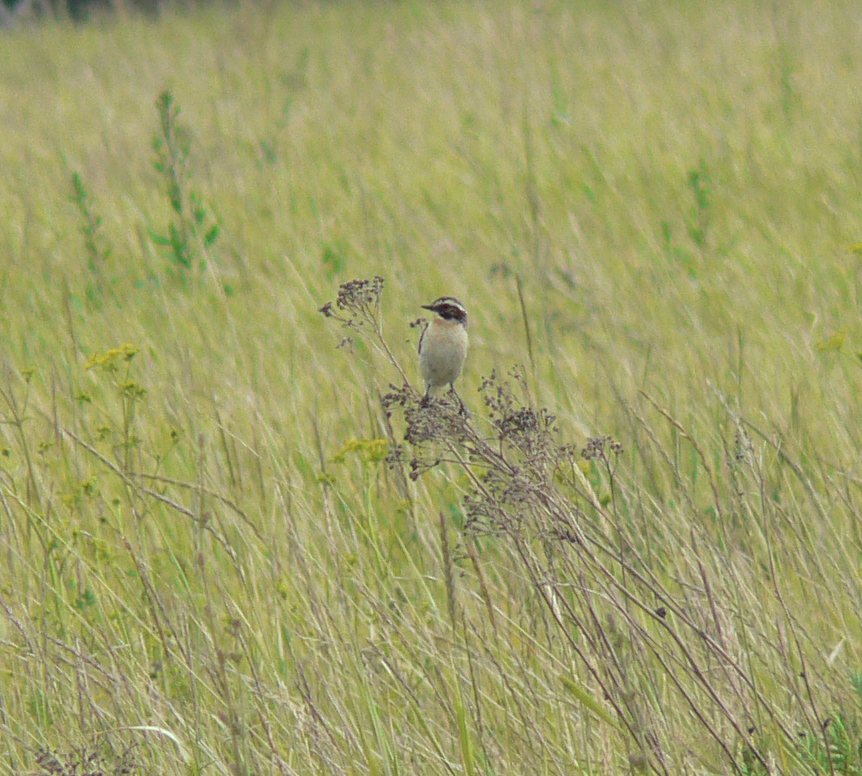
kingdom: Animalia
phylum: Chordata
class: Aves
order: Passeriformes
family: Muscicapidae
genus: Saxicola
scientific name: Saxicola rubetra
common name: Whinchat
